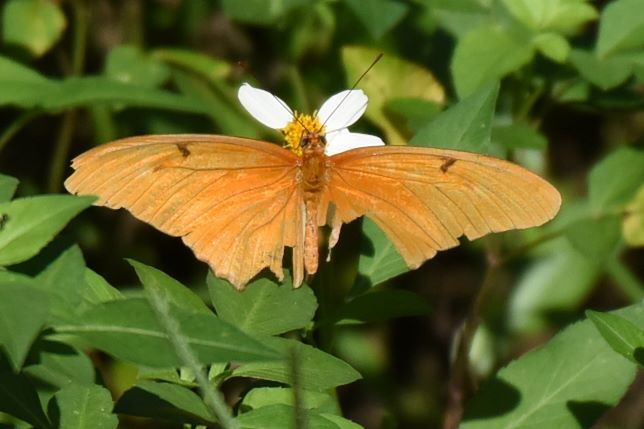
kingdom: Animalia
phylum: Arthropoda
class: Insecta
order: Lepidoptera
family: Nymphalidae
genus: Dryas
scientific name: Dryas iulia
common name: Flambeau
